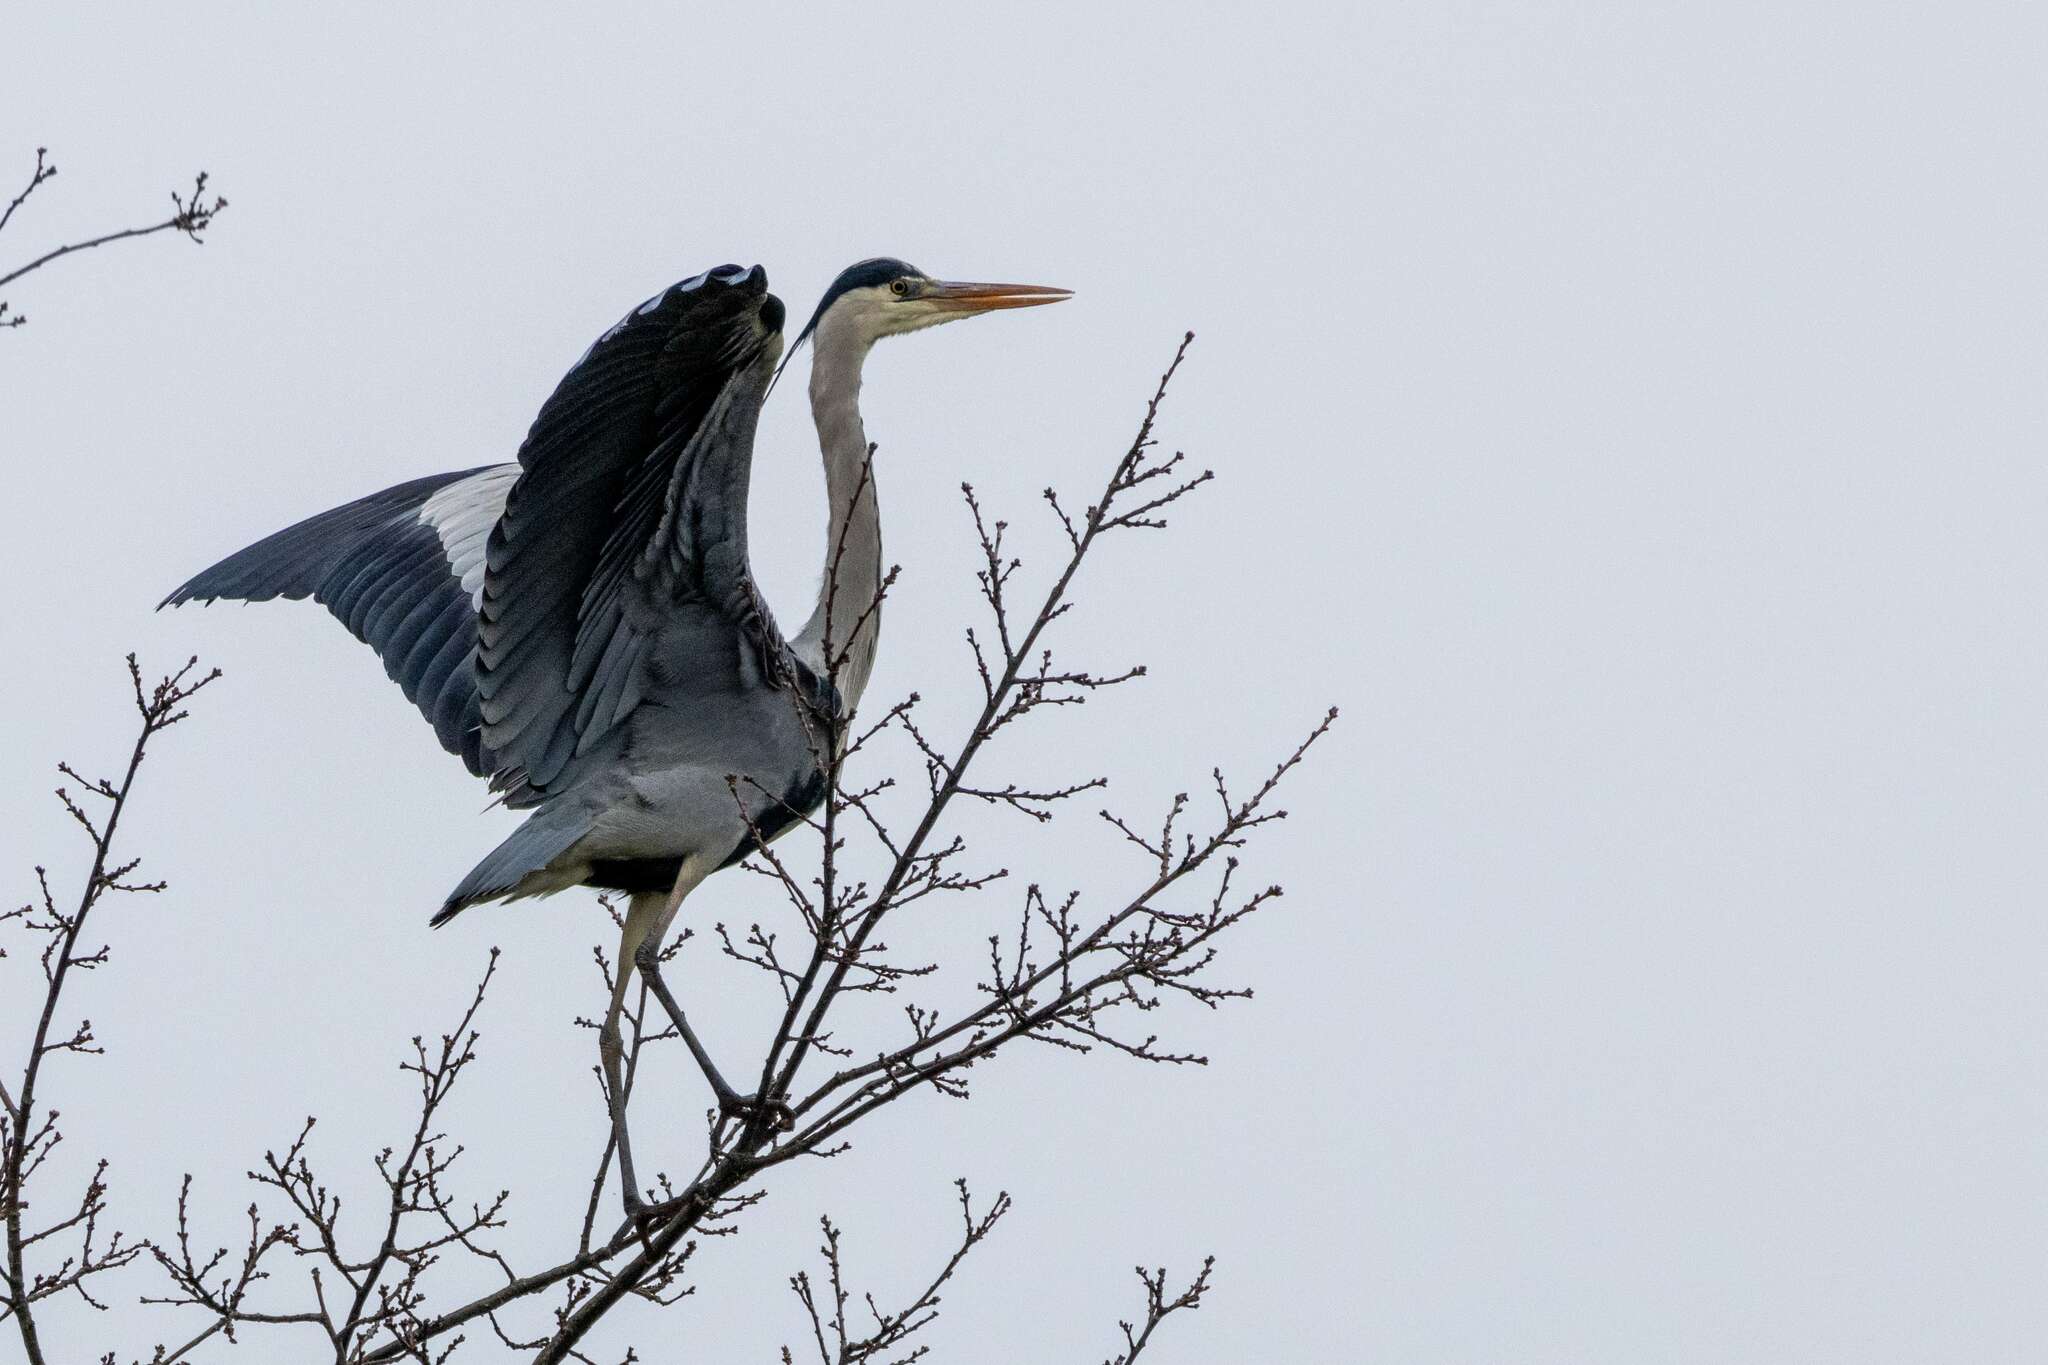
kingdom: Animalia
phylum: Chordata
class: Aves
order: Pelecaniformes
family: Ardeidae
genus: Ardea
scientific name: Ardea cinerea
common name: Grey heron
